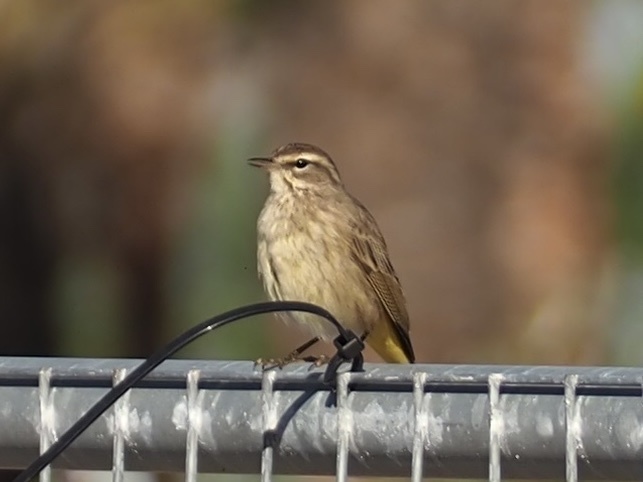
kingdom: Animalia
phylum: Chordata
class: Aves
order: Passeriformes
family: Parulidae
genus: Setophaga
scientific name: Setophaga palmarum
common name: Palm warbler
